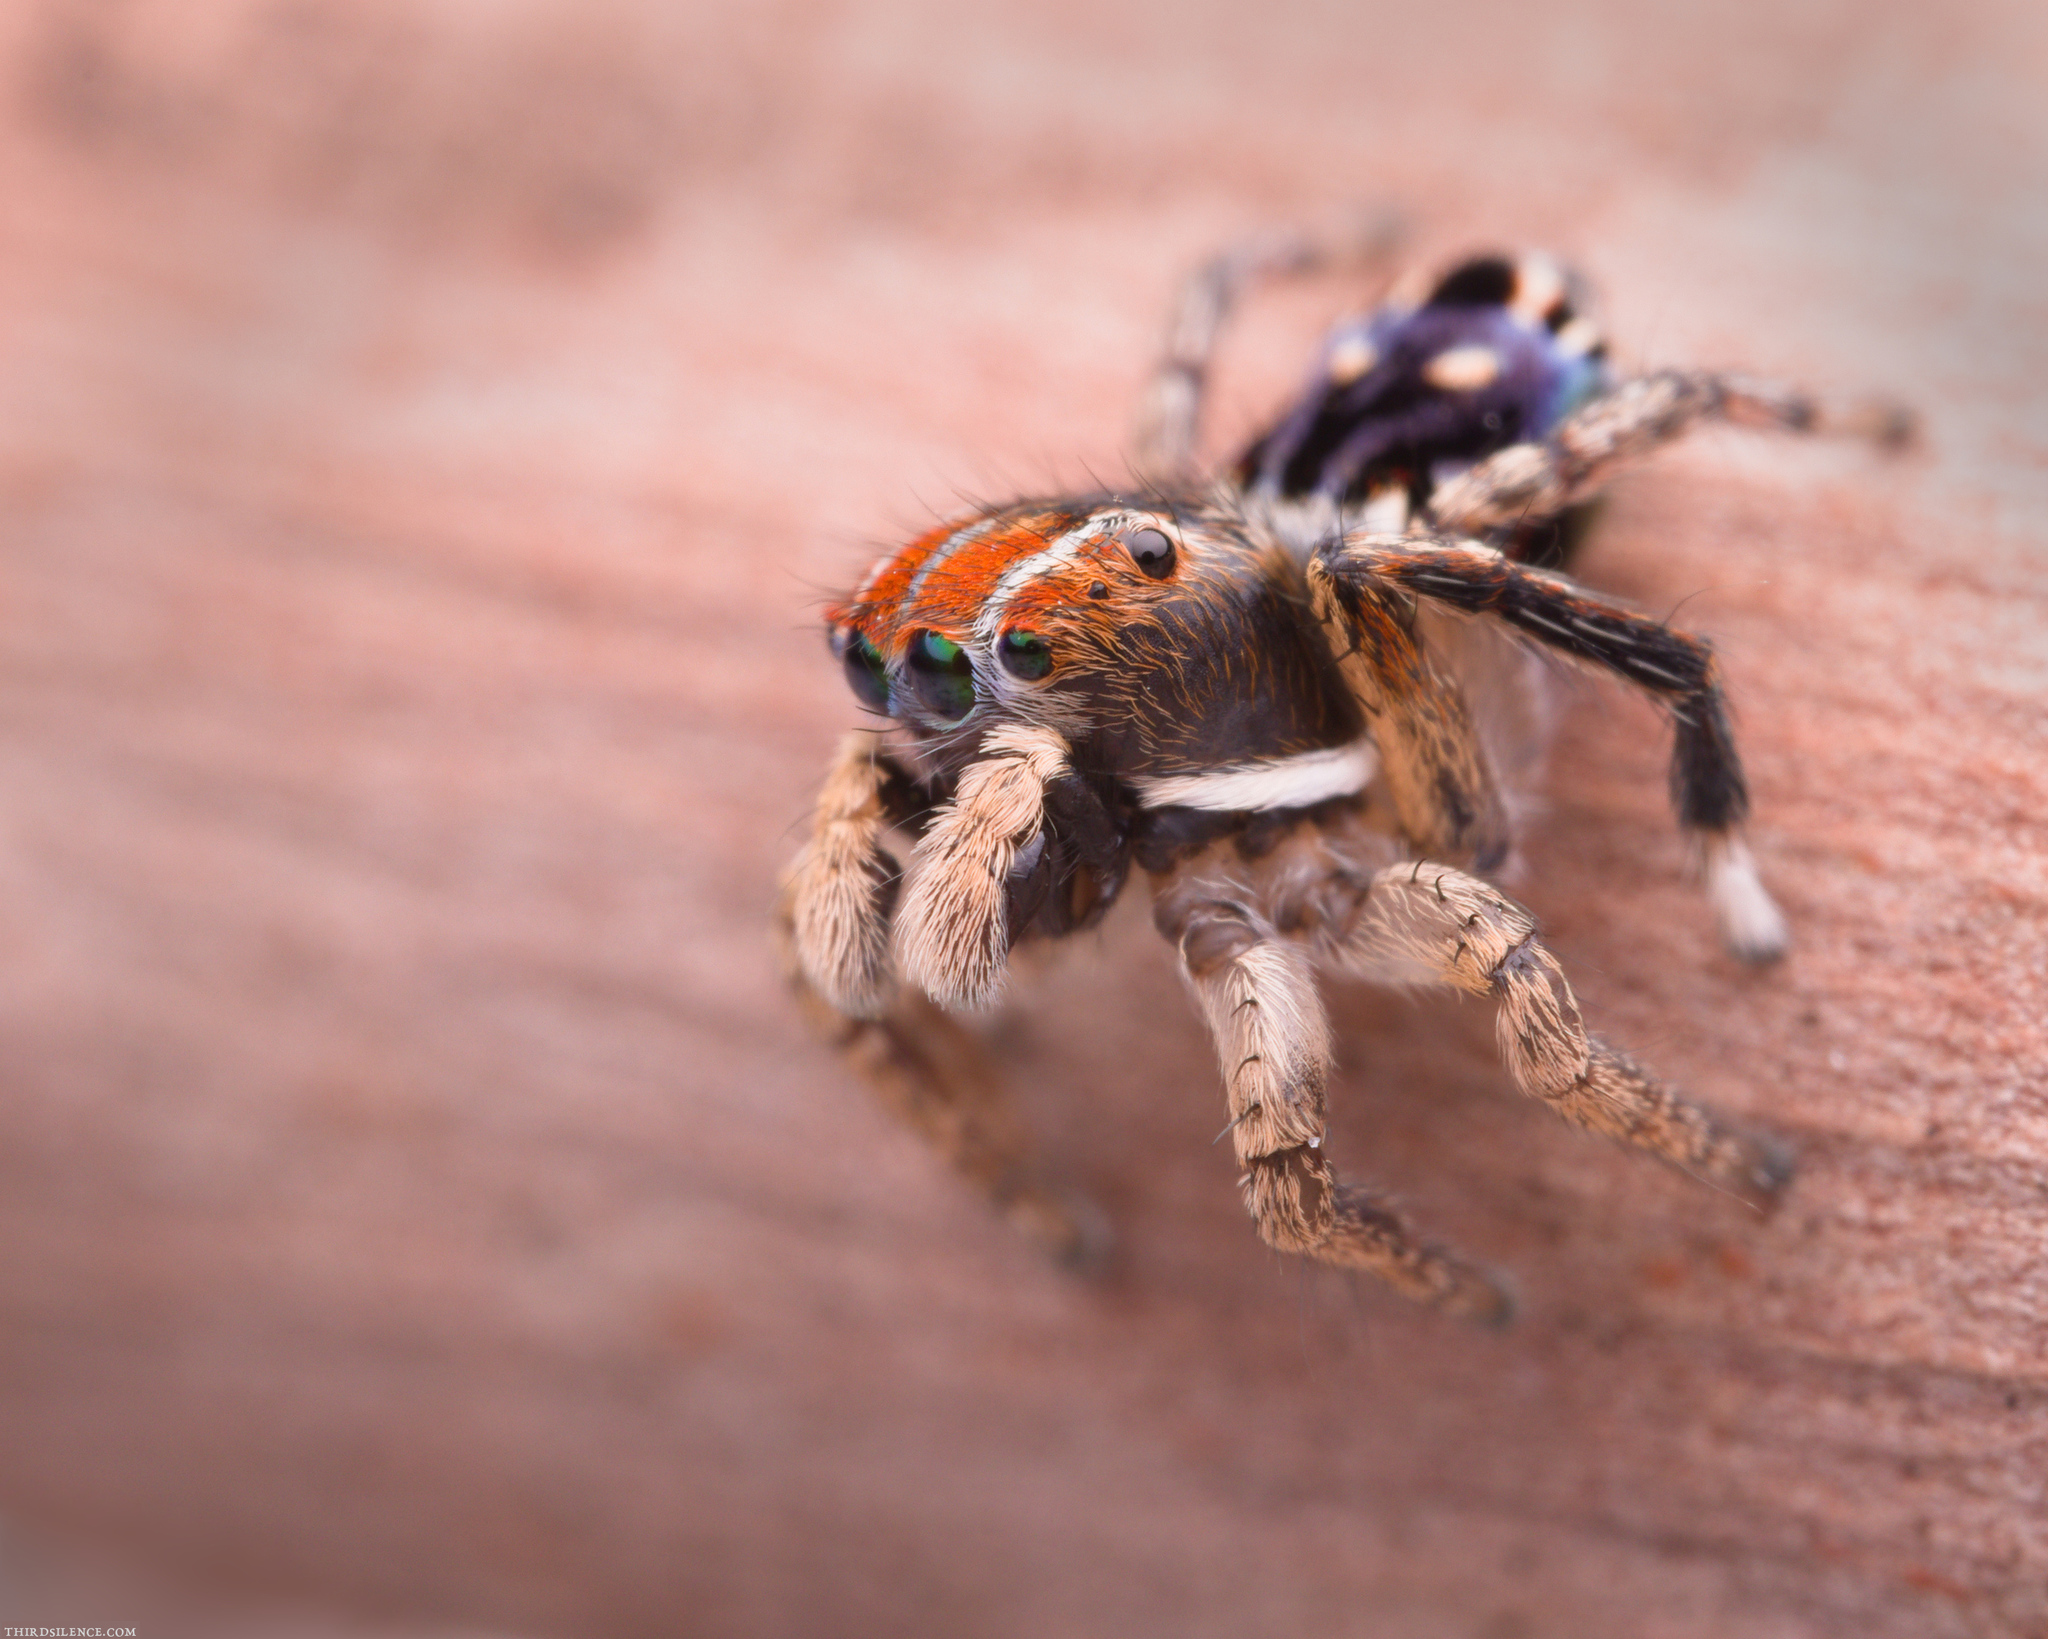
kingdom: Animalia
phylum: Arthropoda
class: Arachnida
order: Araneae
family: Salticidae
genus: Maratus
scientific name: Maratus harrisi
